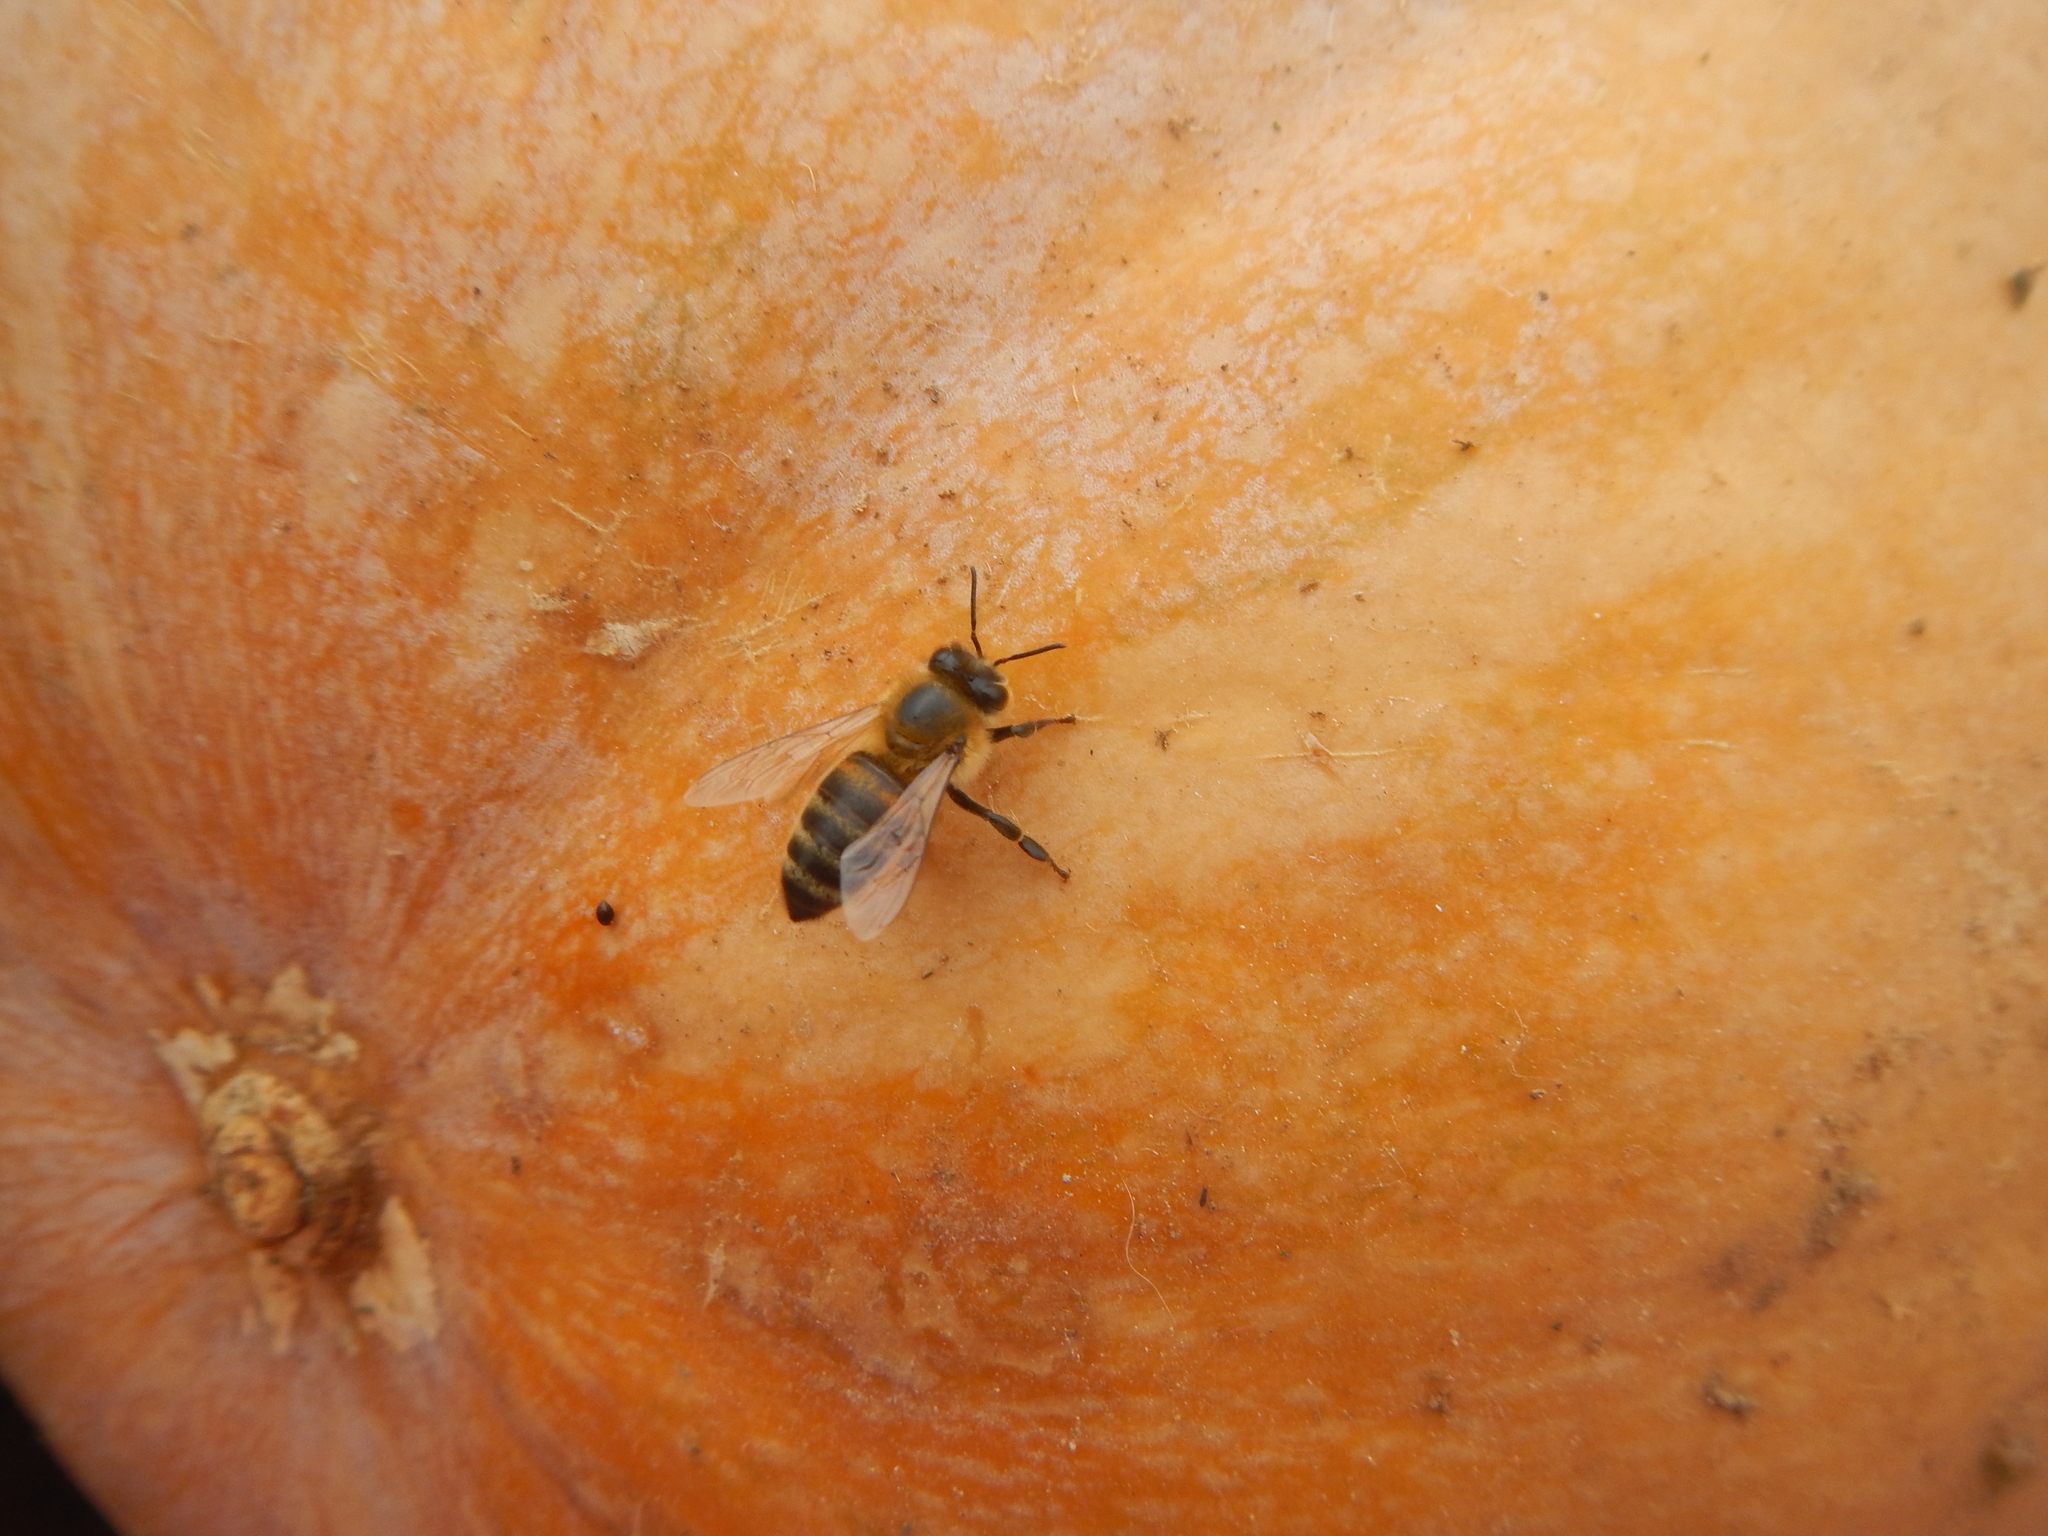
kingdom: Animalia
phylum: Arthropoda
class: Insecta
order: Hymenoptera
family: Apidae
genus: Apis
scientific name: Apis mellifera
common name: Honey bee
